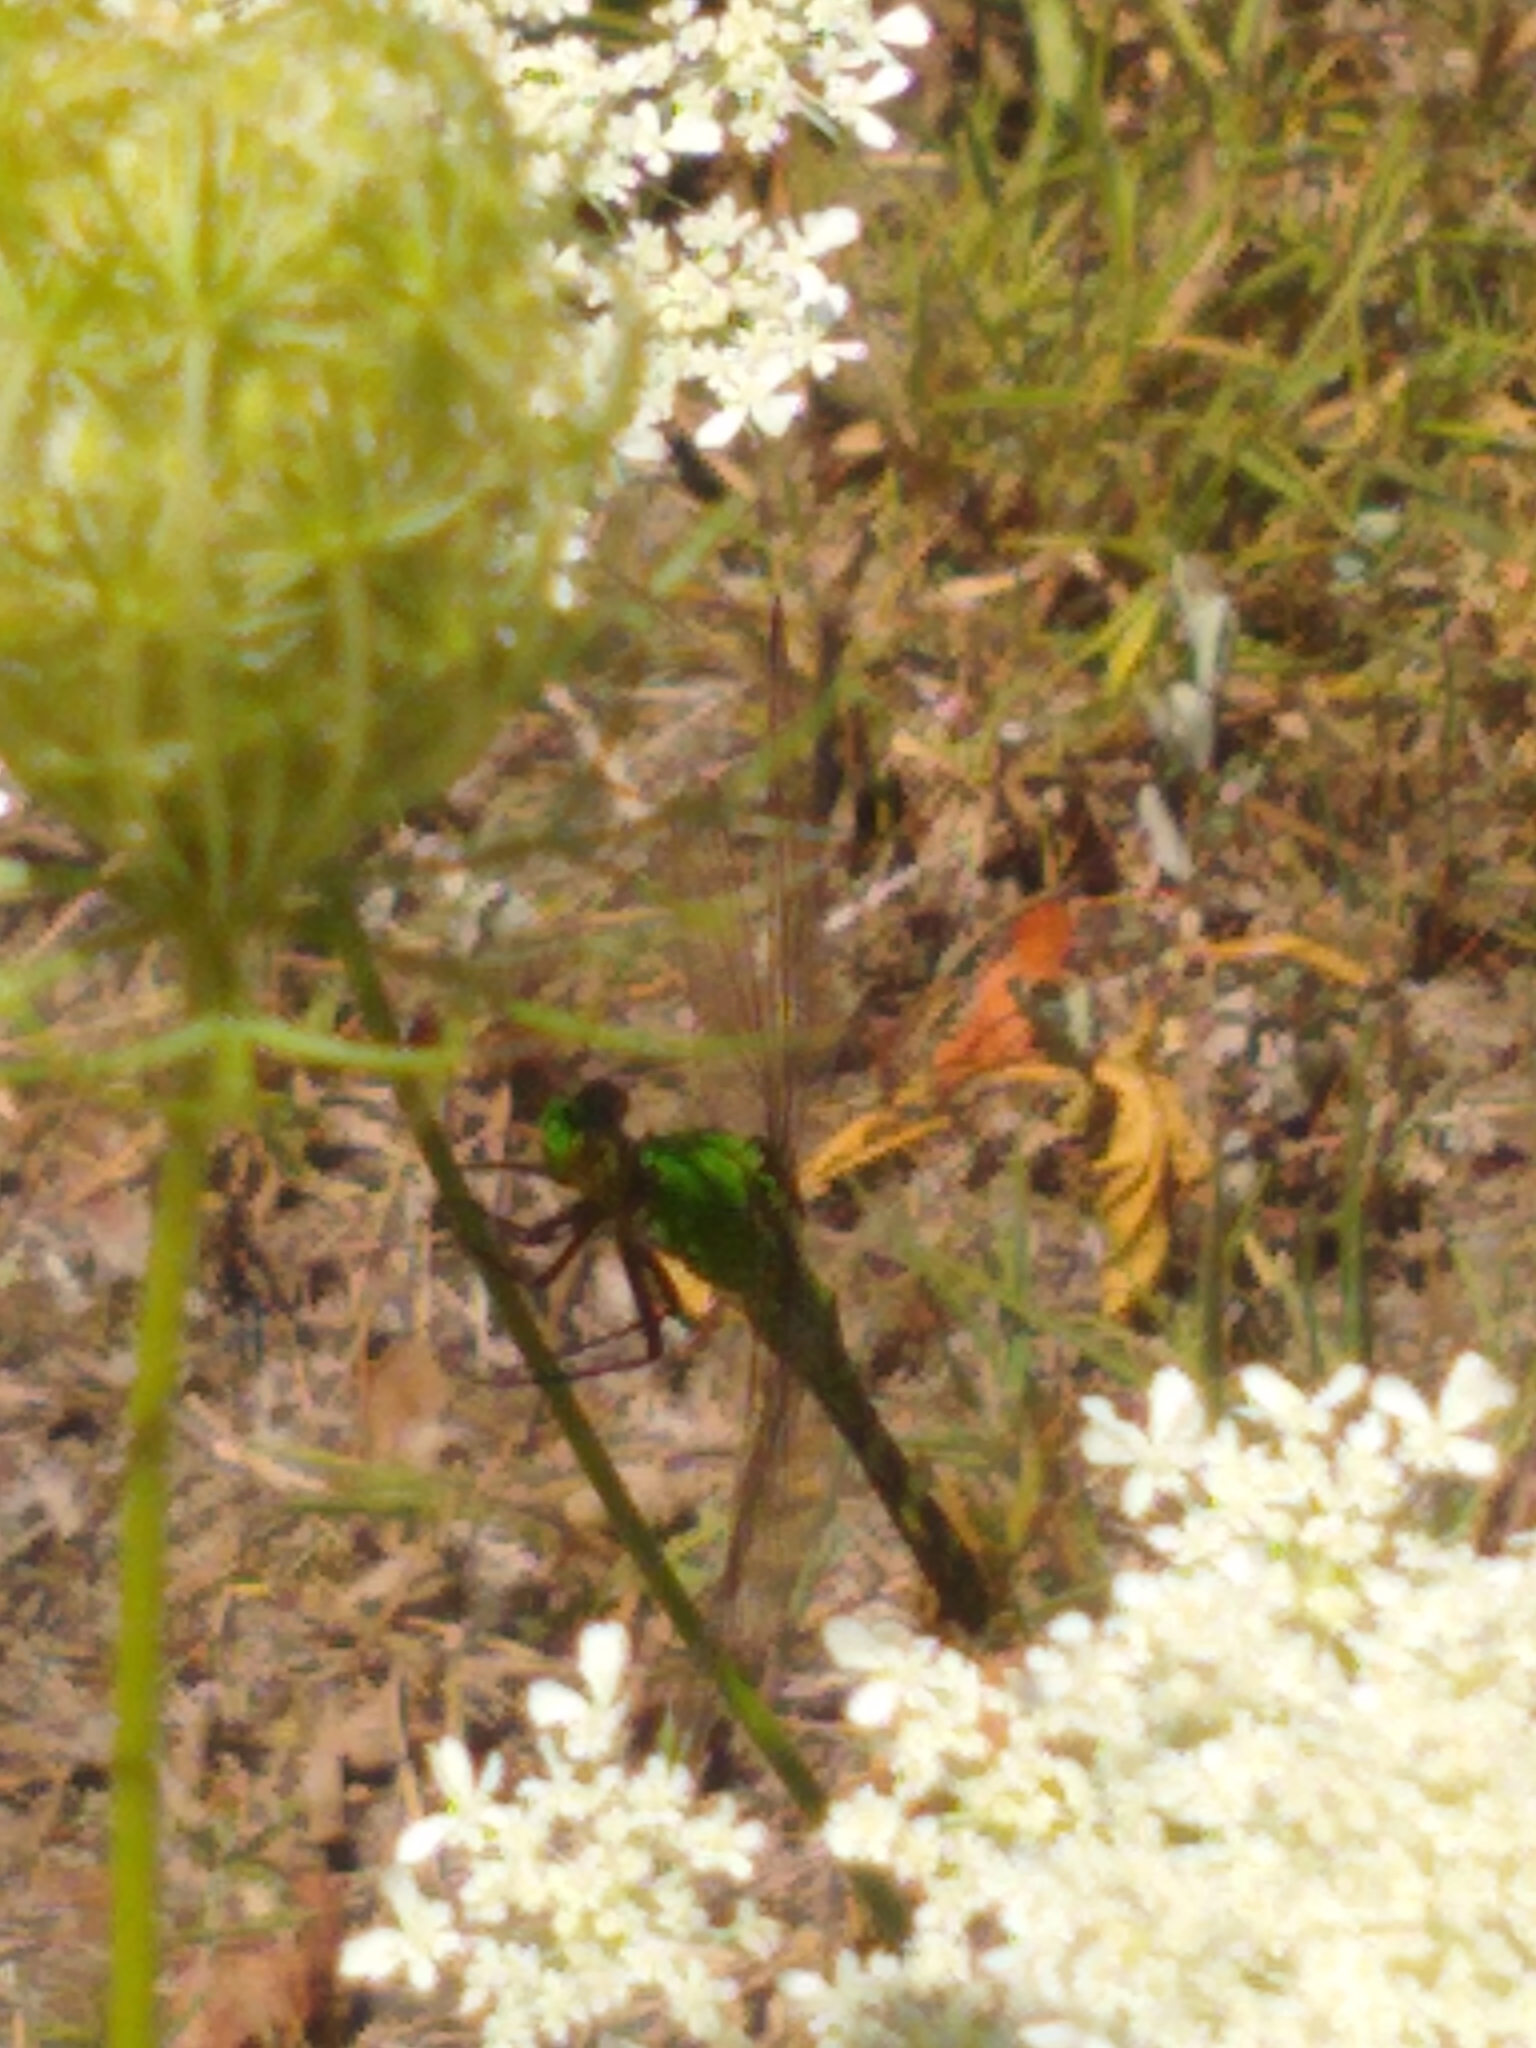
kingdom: Animalia
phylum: Arthropoda
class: Insecta
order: Odonata
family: Libellulidae
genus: Erythemis
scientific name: Erythemis simplicicollis
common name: Eastern pondhawk
